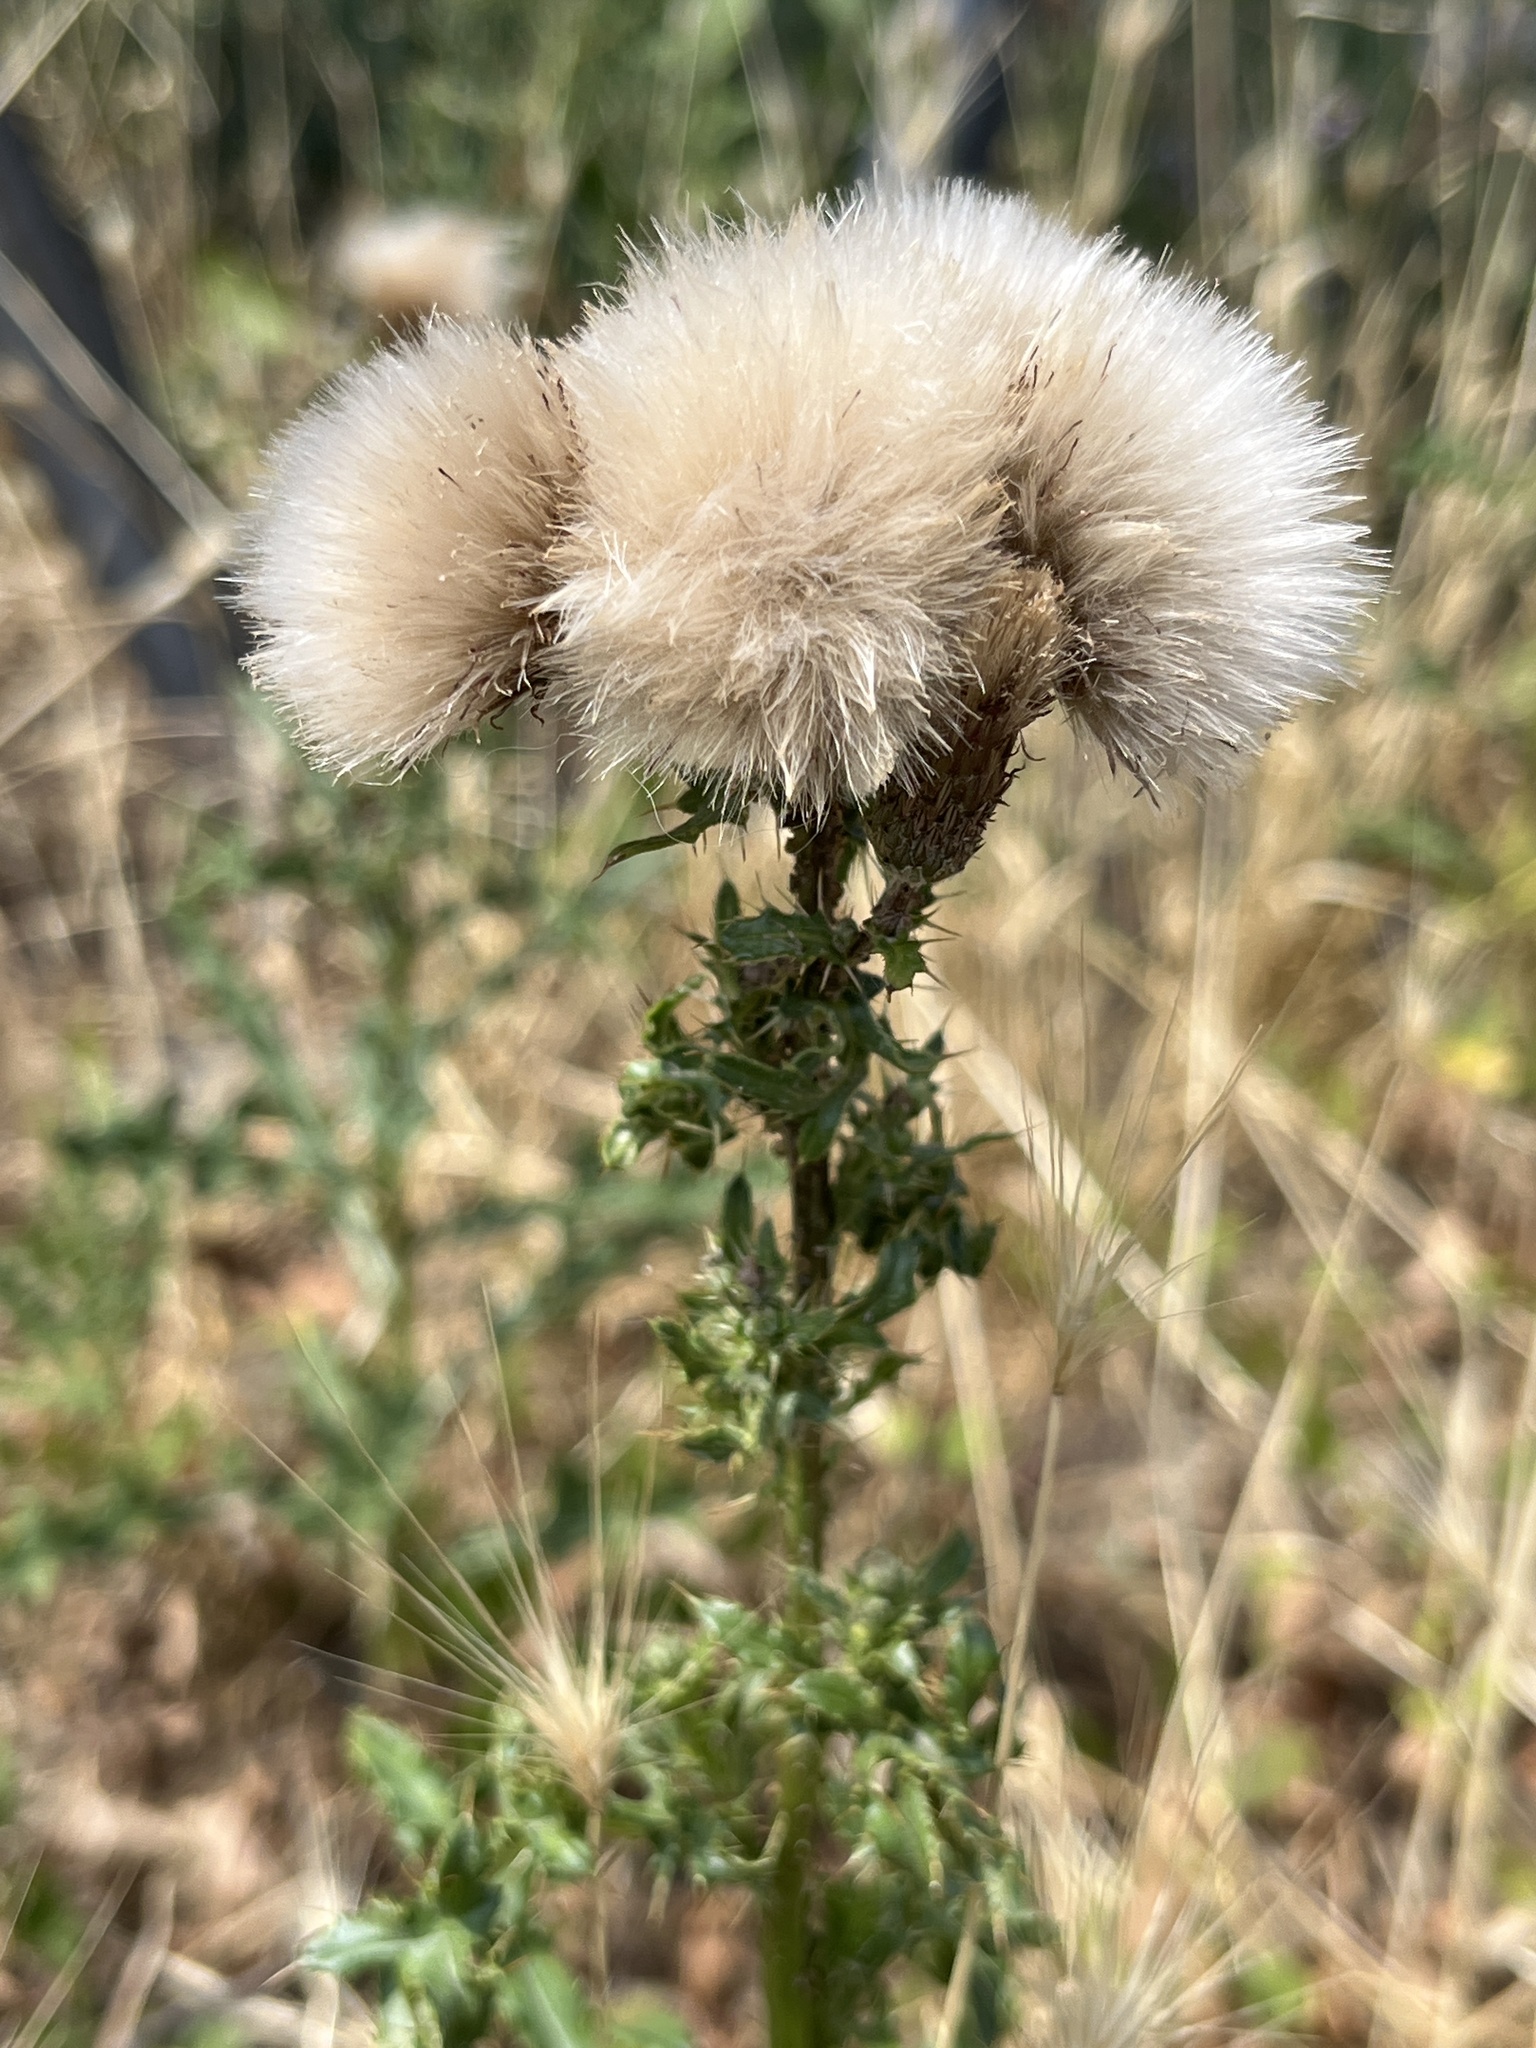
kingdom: Plantae
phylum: Tracheophyta
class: Magnoliopsida
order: Asterales
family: Asteraceae
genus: Cirsium
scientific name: Cirsium arvense
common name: Creeping thistle
